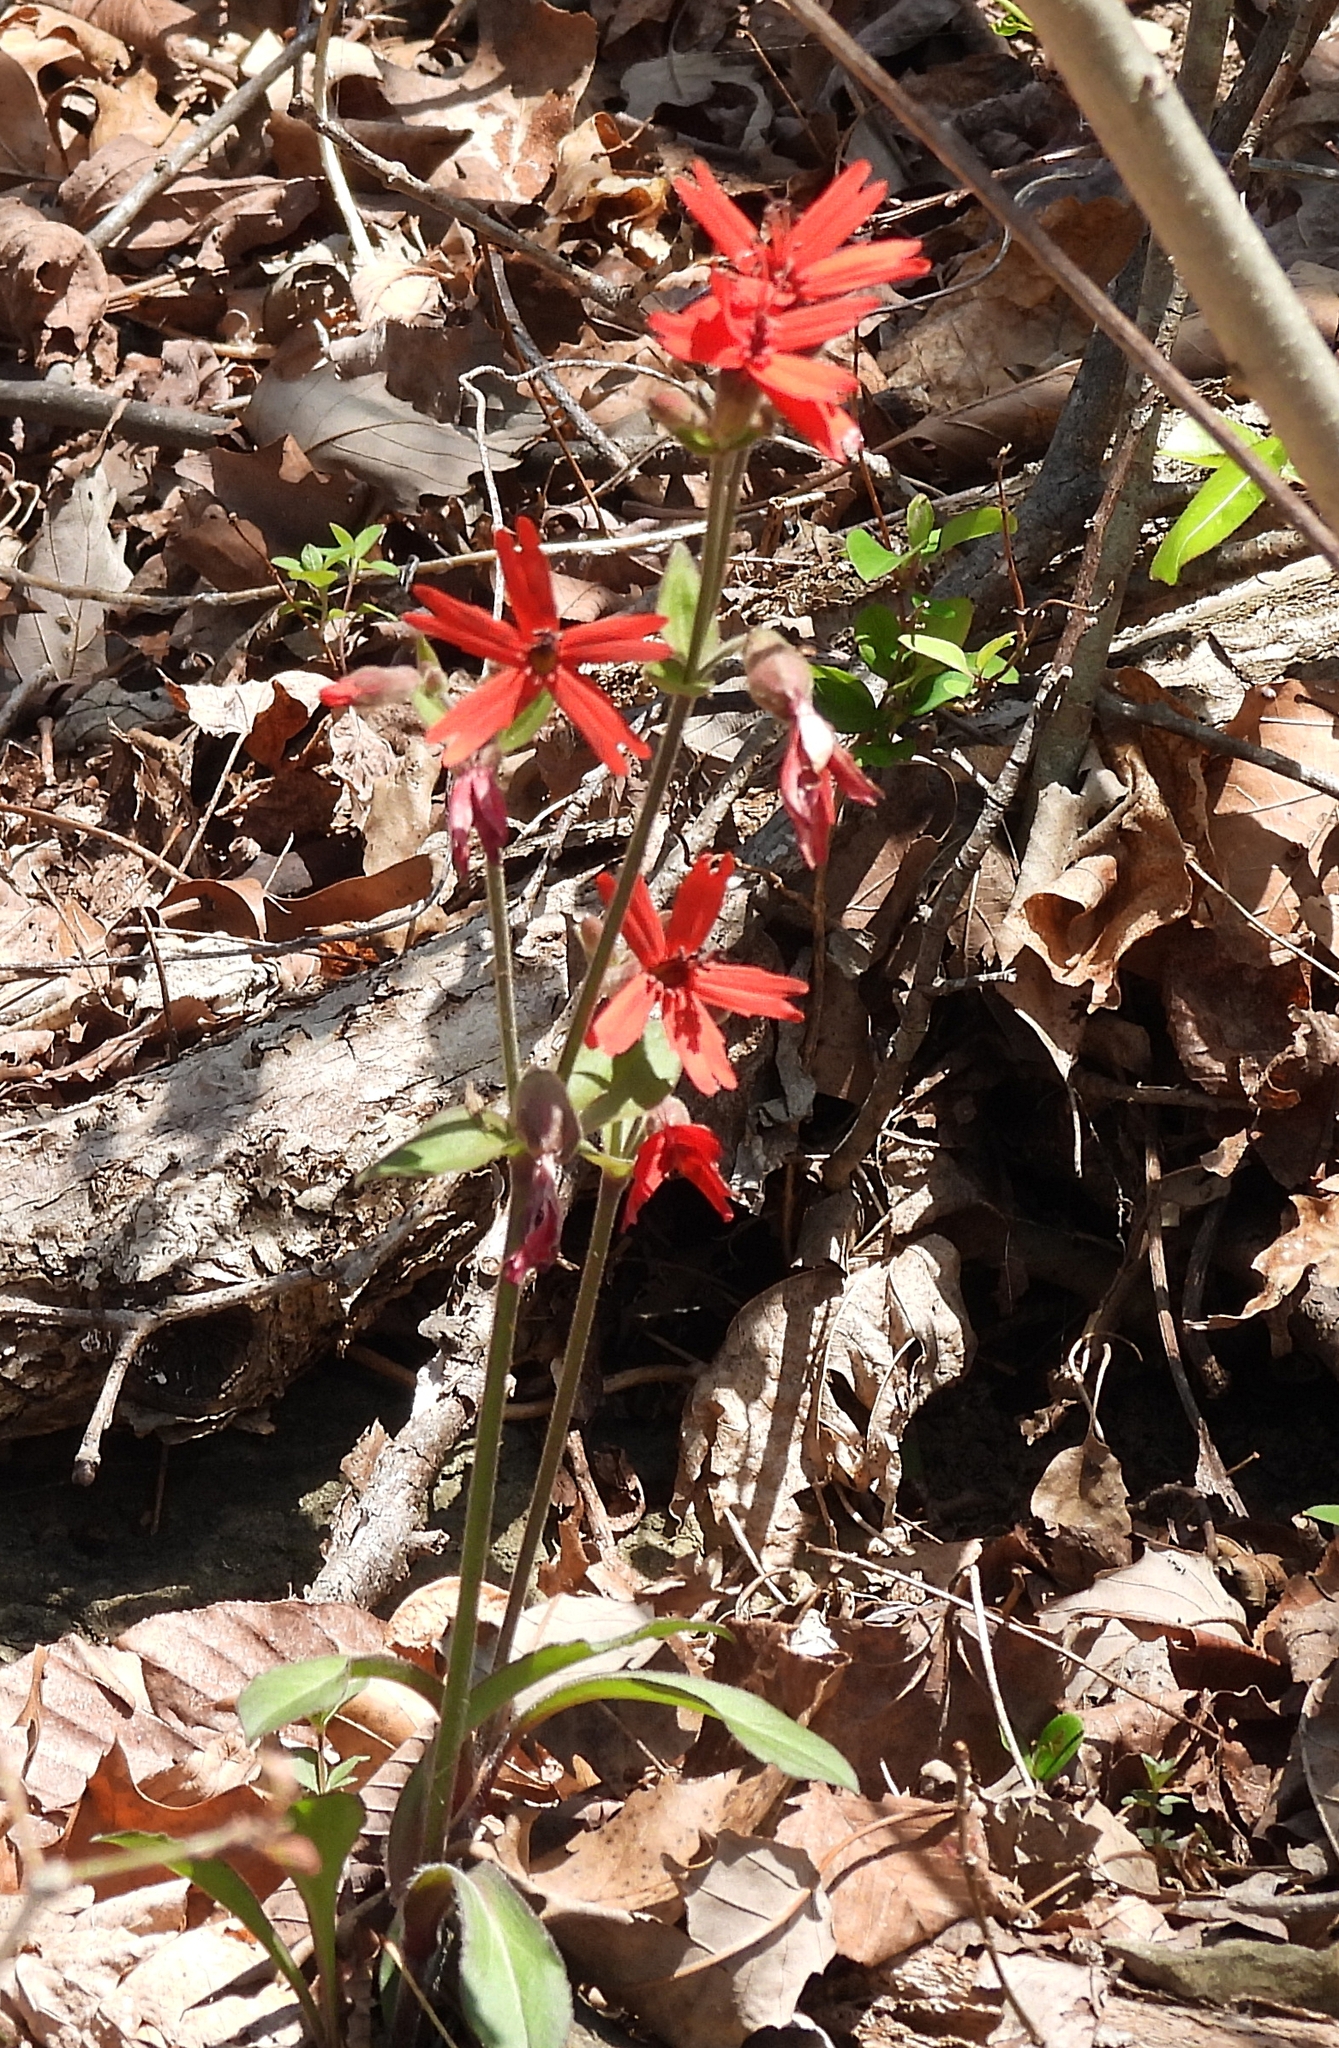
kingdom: Plantae
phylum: Tracheophyta
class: Magnoliopsida
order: Caryophyllales
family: Caryophyllaceae
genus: Silene
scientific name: Silene virginica
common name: Fire-pink
